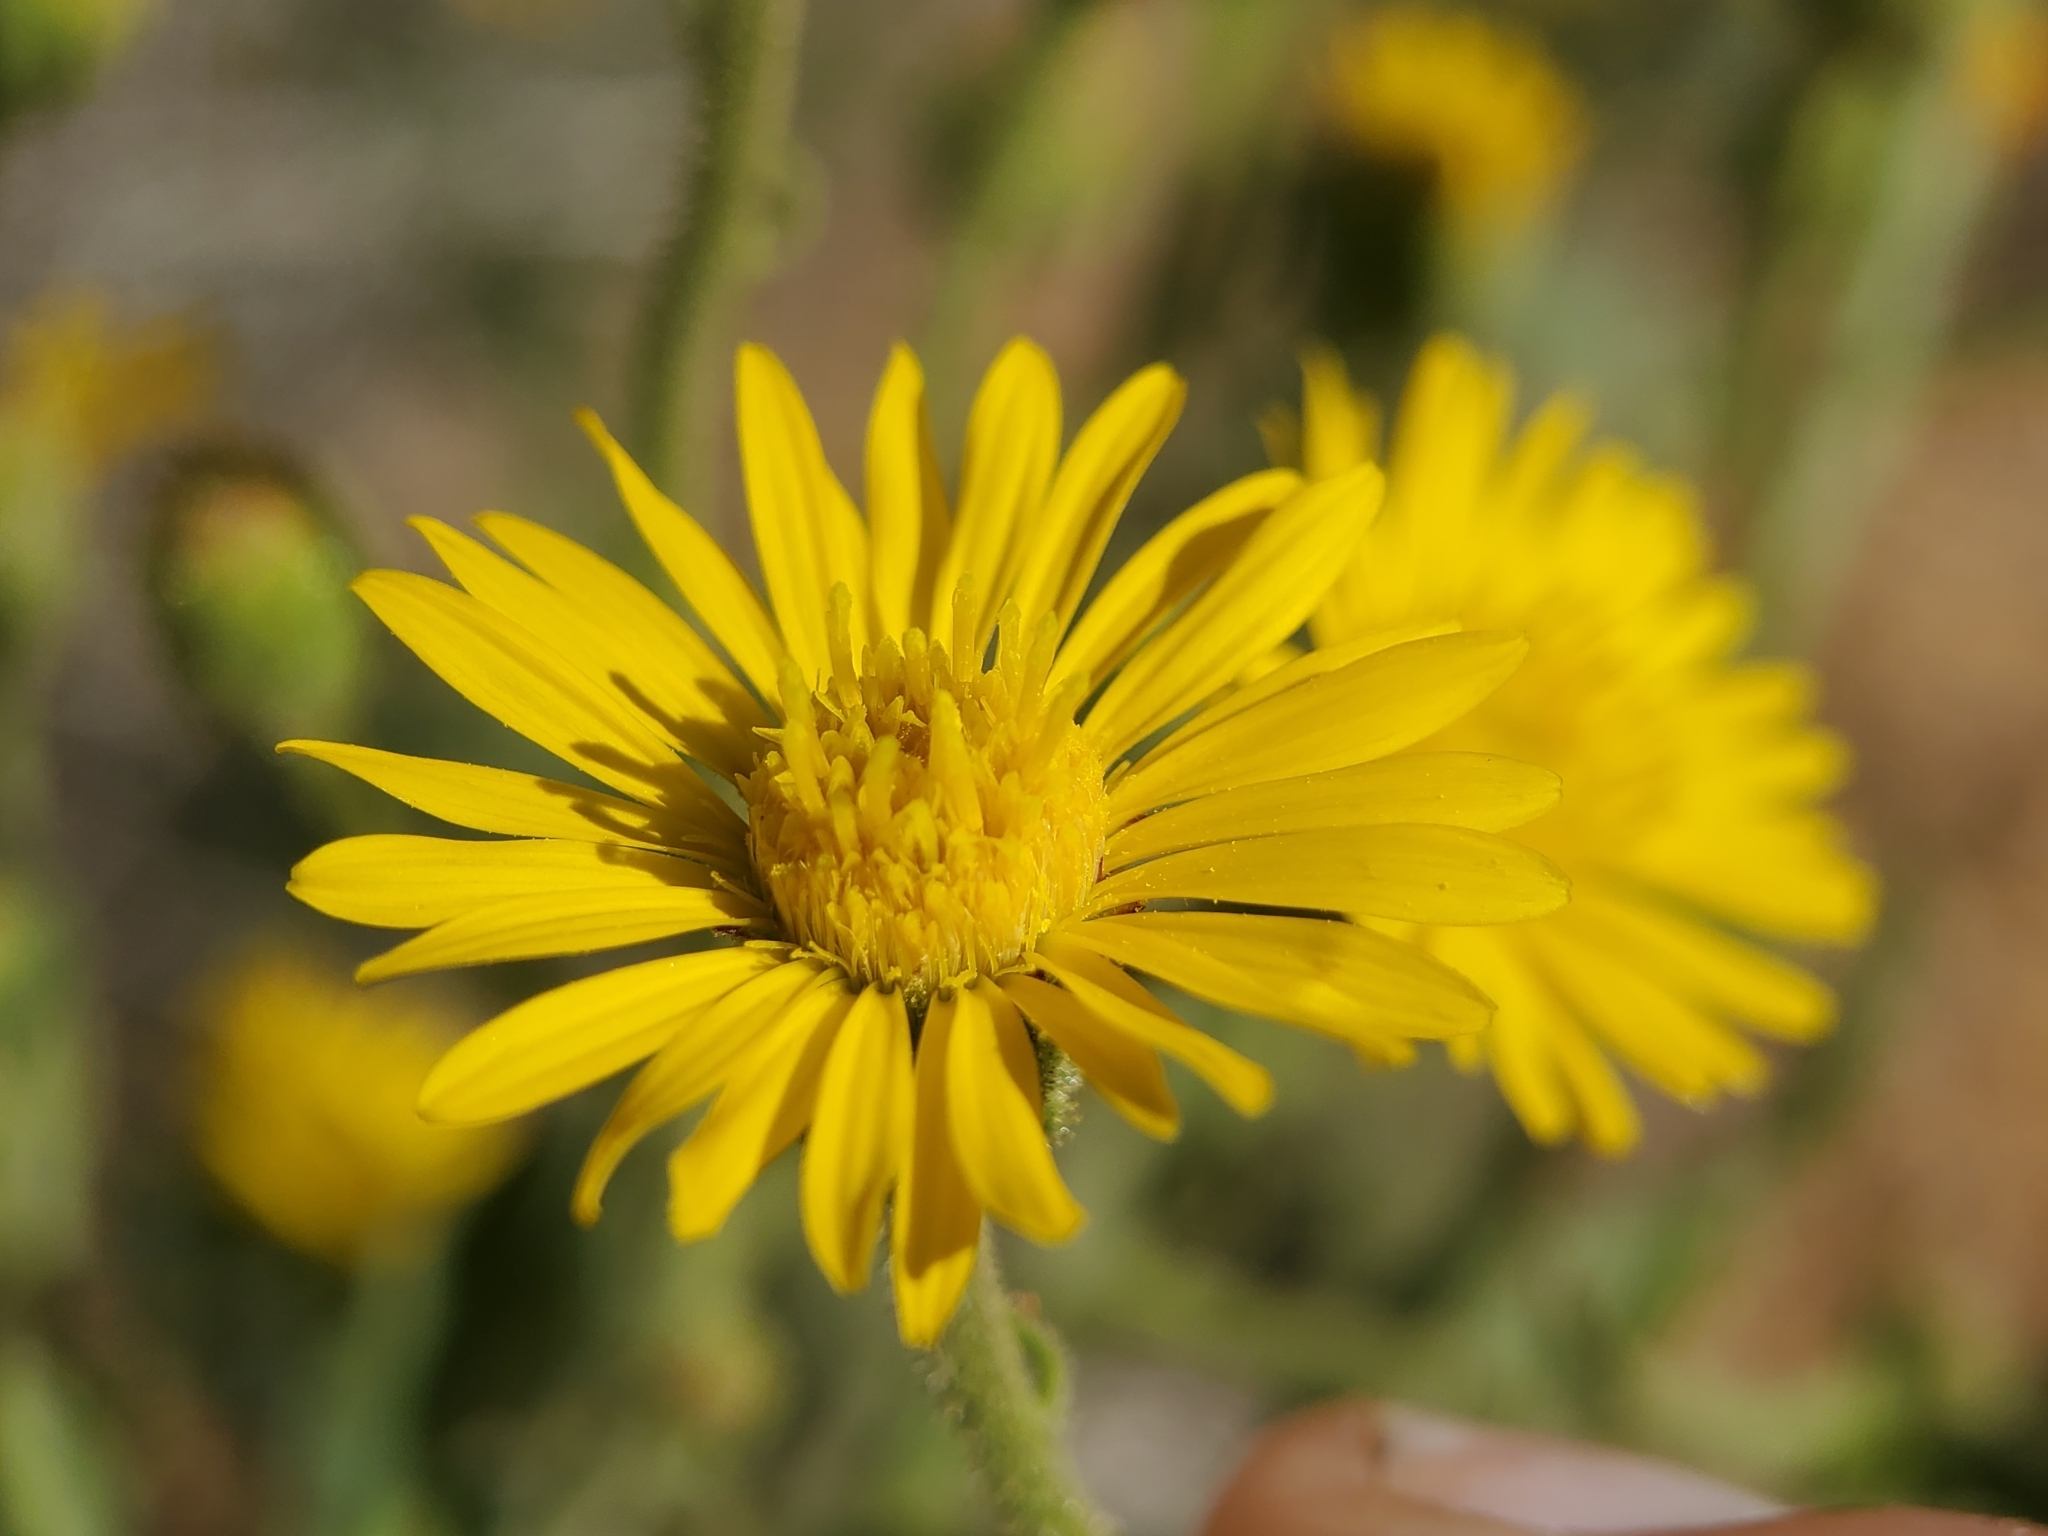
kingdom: Plantae
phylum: Tracheophyta
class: Magnoliopsida
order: Asterales
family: Asteraceae
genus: Heterotheca
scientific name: Heterotheca grandiflora
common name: Telegraphweed
